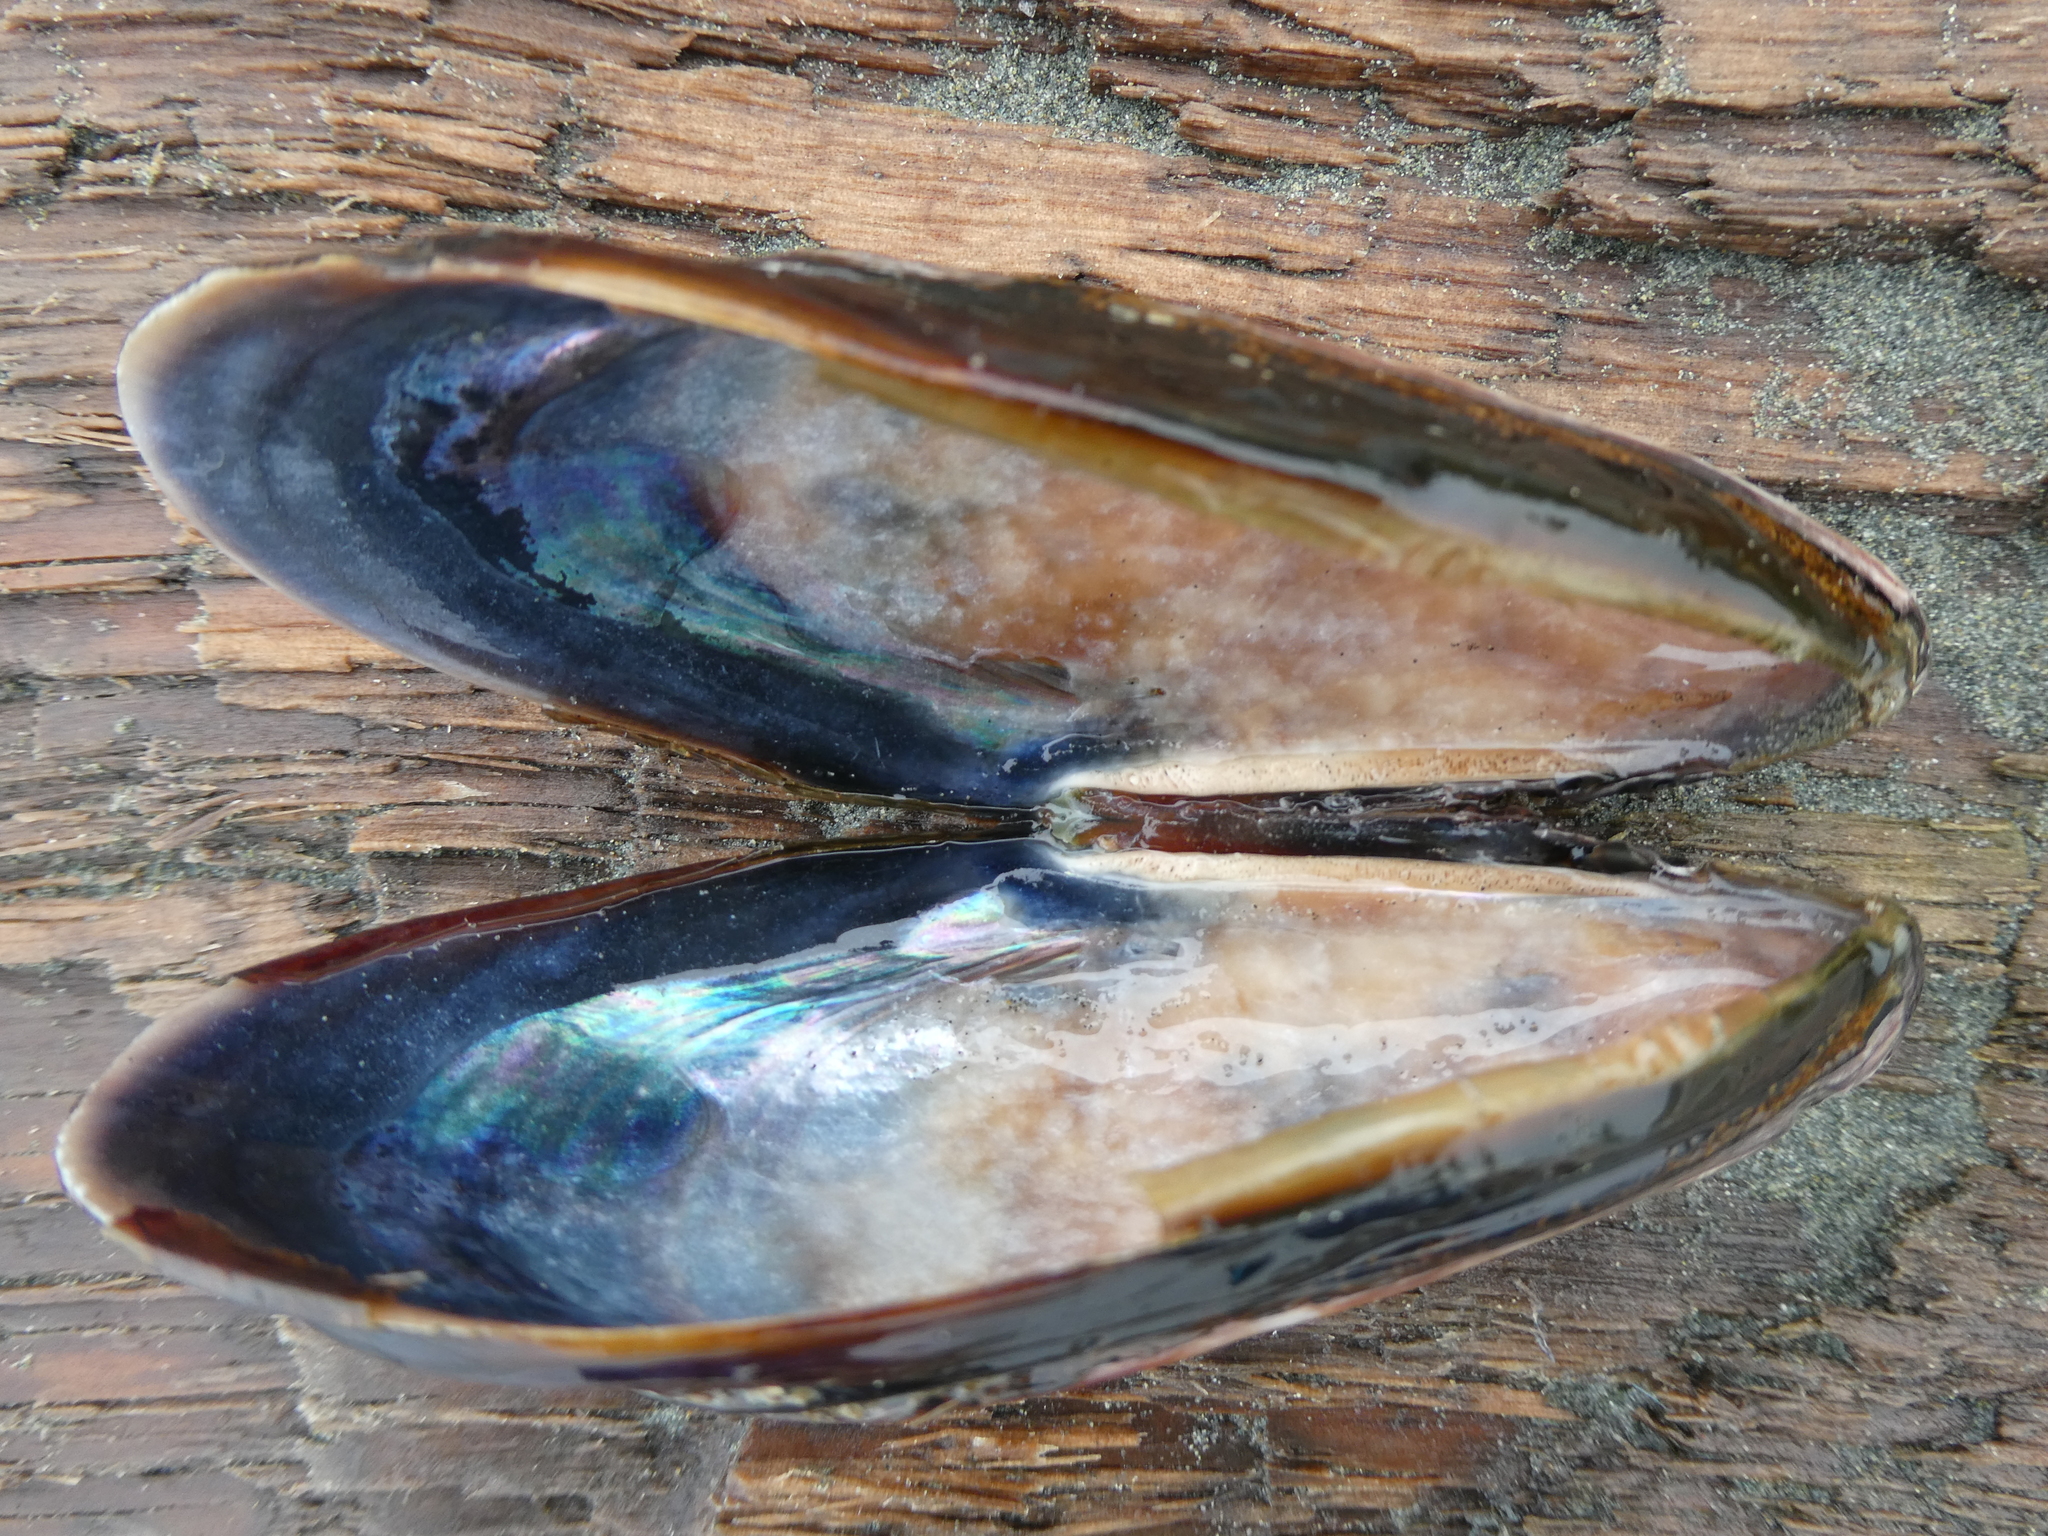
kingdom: Animalia
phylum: Mollusca
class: Bivalvia
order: Mytilida
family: Mytilidae
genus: Mytilus
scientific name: Mytilus californianus
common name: California mussel
